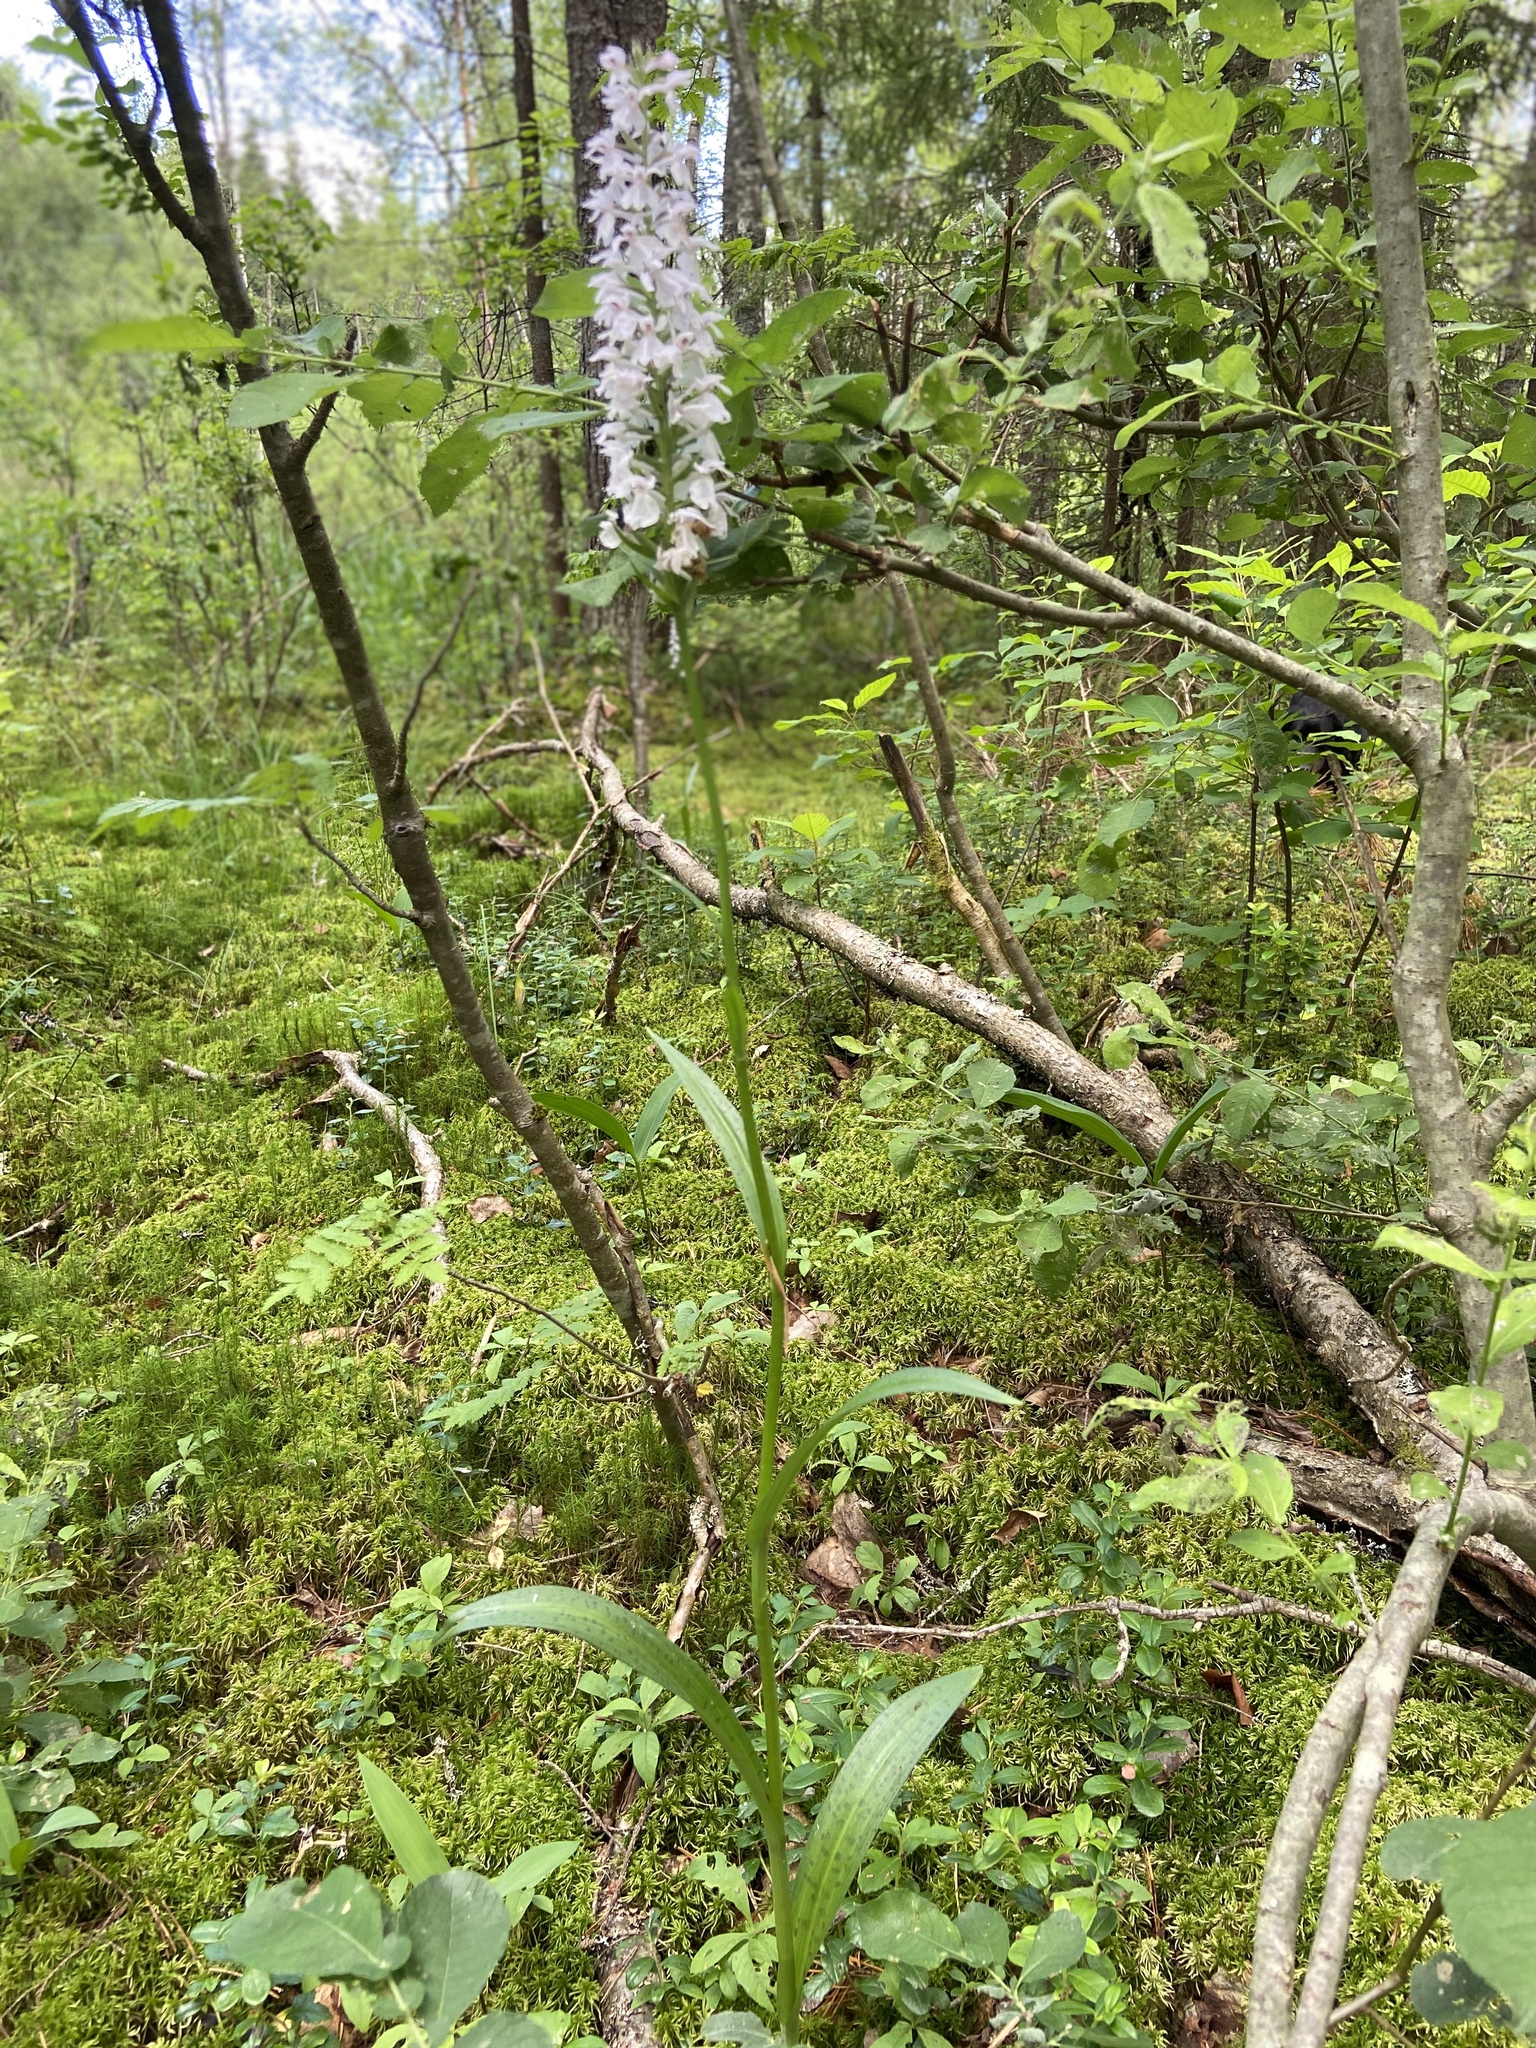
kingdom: Plantae
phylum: Tracheophyta
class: Liliopsida
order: Asparagales
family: Orchidaceae
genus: Dactylorhiza
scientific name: Dactylorhiza maculata
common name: Heath spotted-orchid
